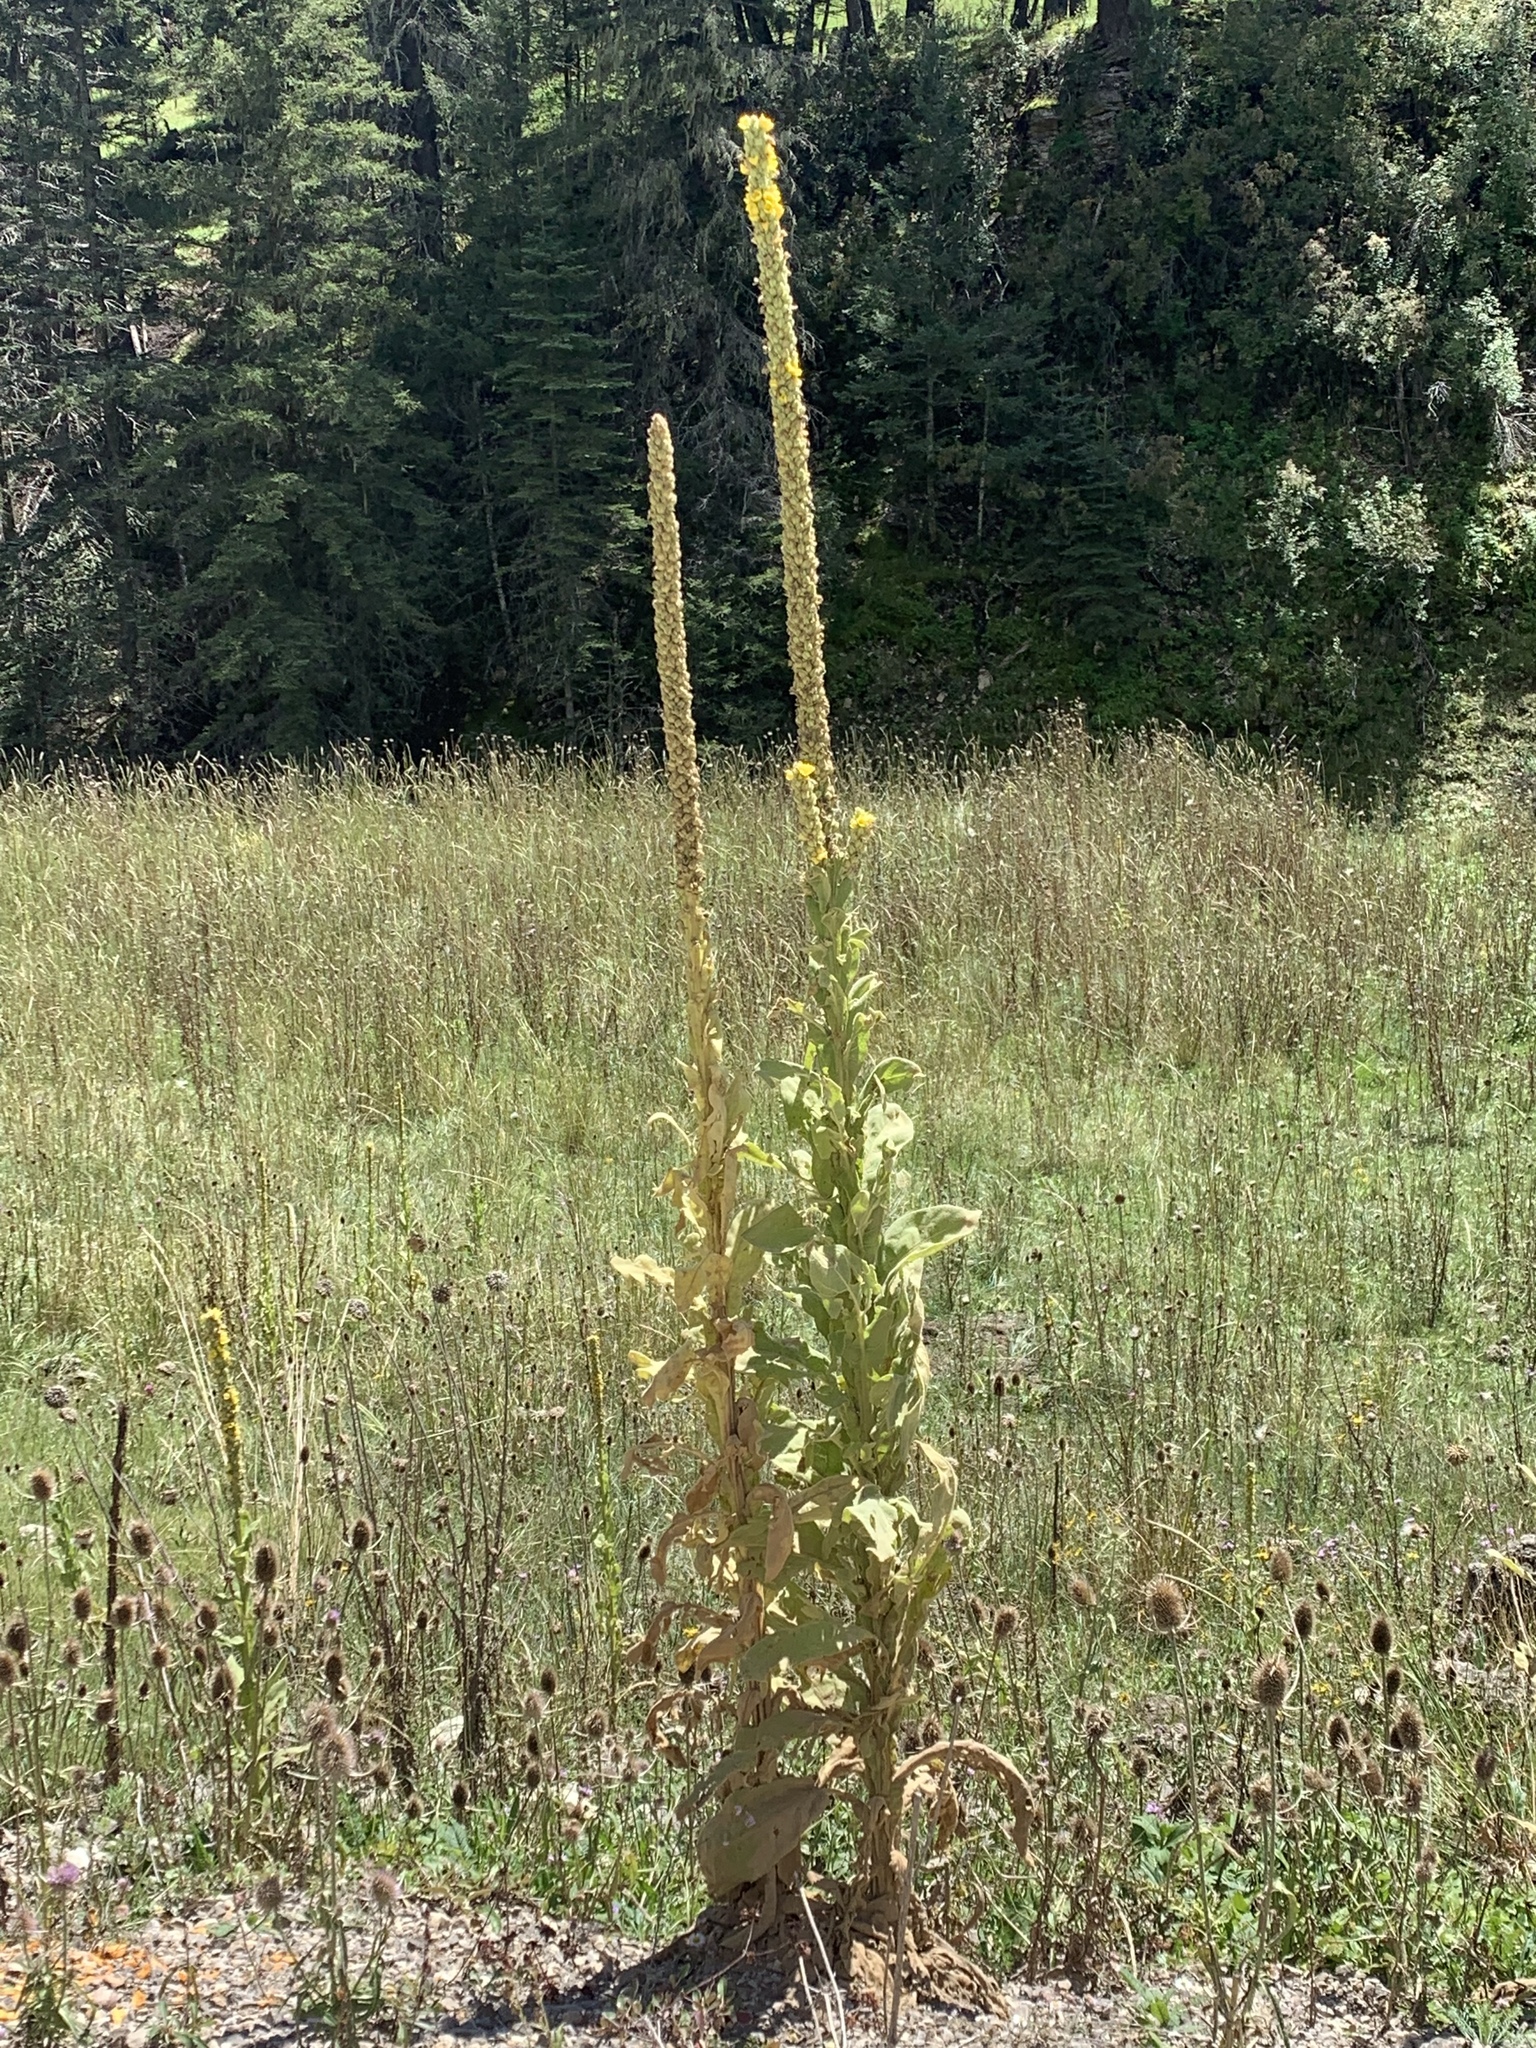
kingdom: Plantae
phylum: Tracheophyta
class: Magnoliopsida
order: Lamiales
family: Scrophulariaceae
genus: Verbascum
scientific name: Verbascum thapsus
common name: Common mullein
